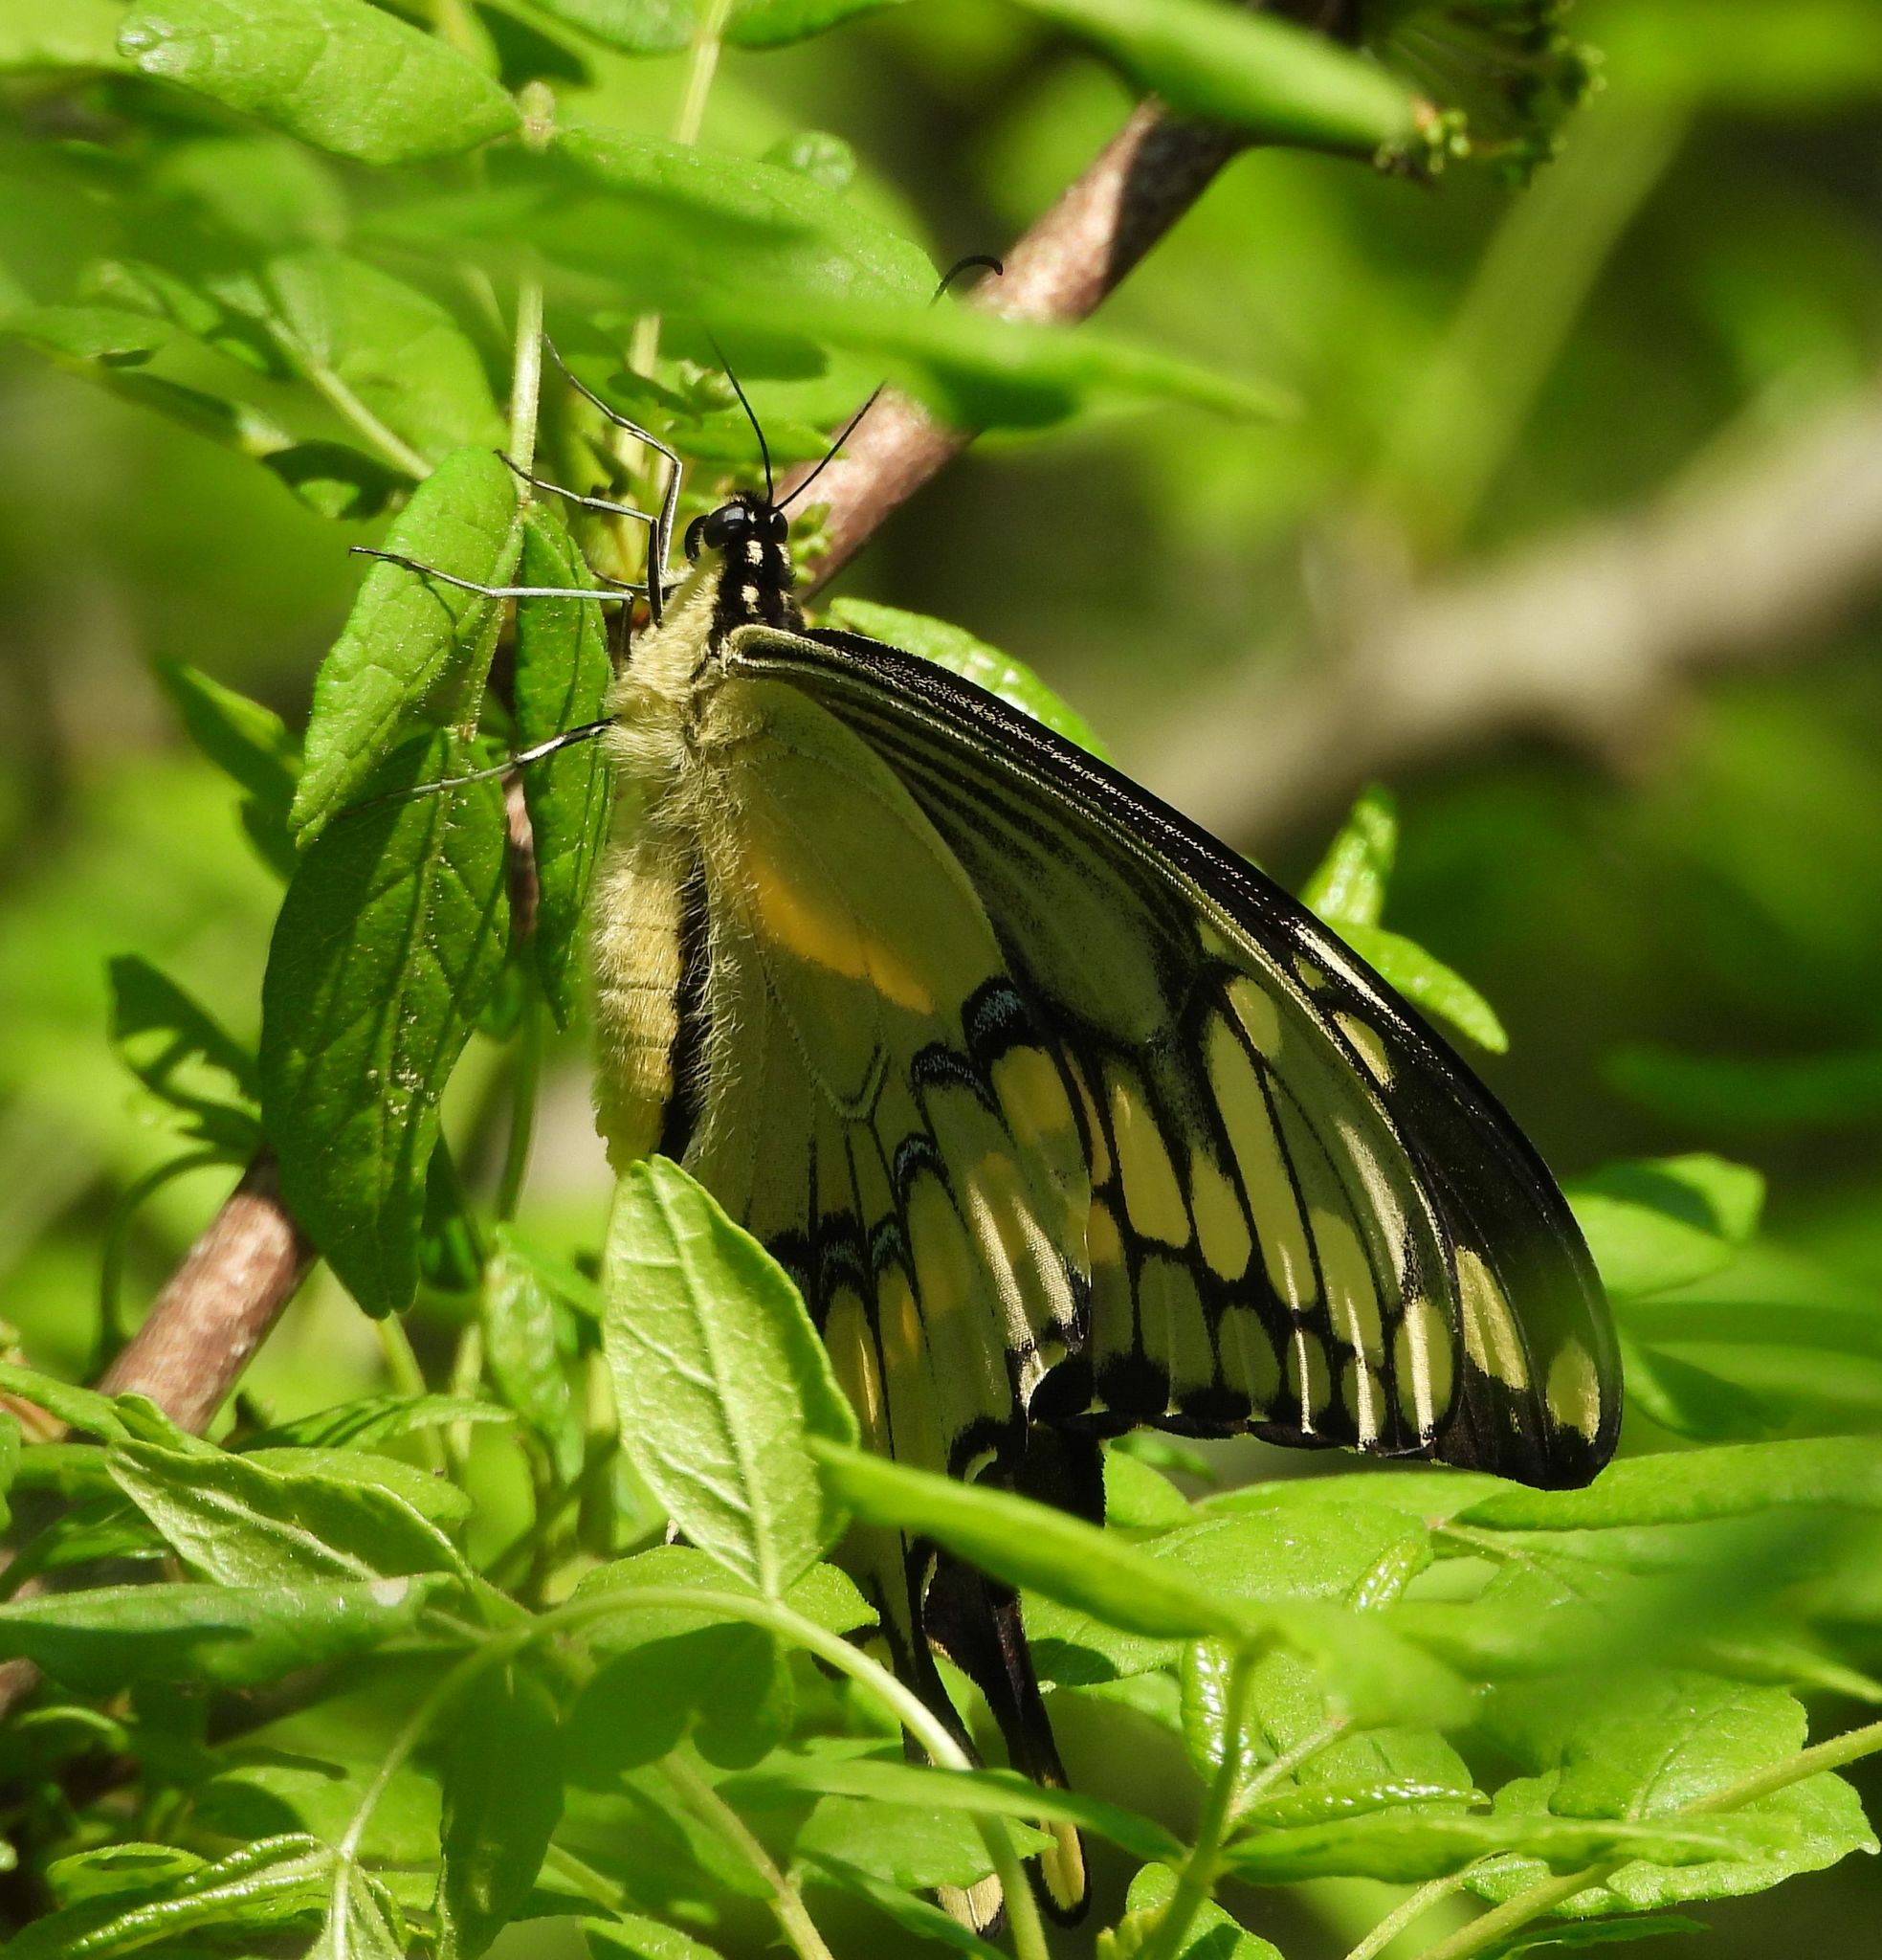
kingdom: Animalia
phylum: Arthropoda
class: Insecta
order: Lepidoptera
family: Papilionidae
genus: Papilio
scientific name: Papilio cresphontes
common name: Giant swallowtail
